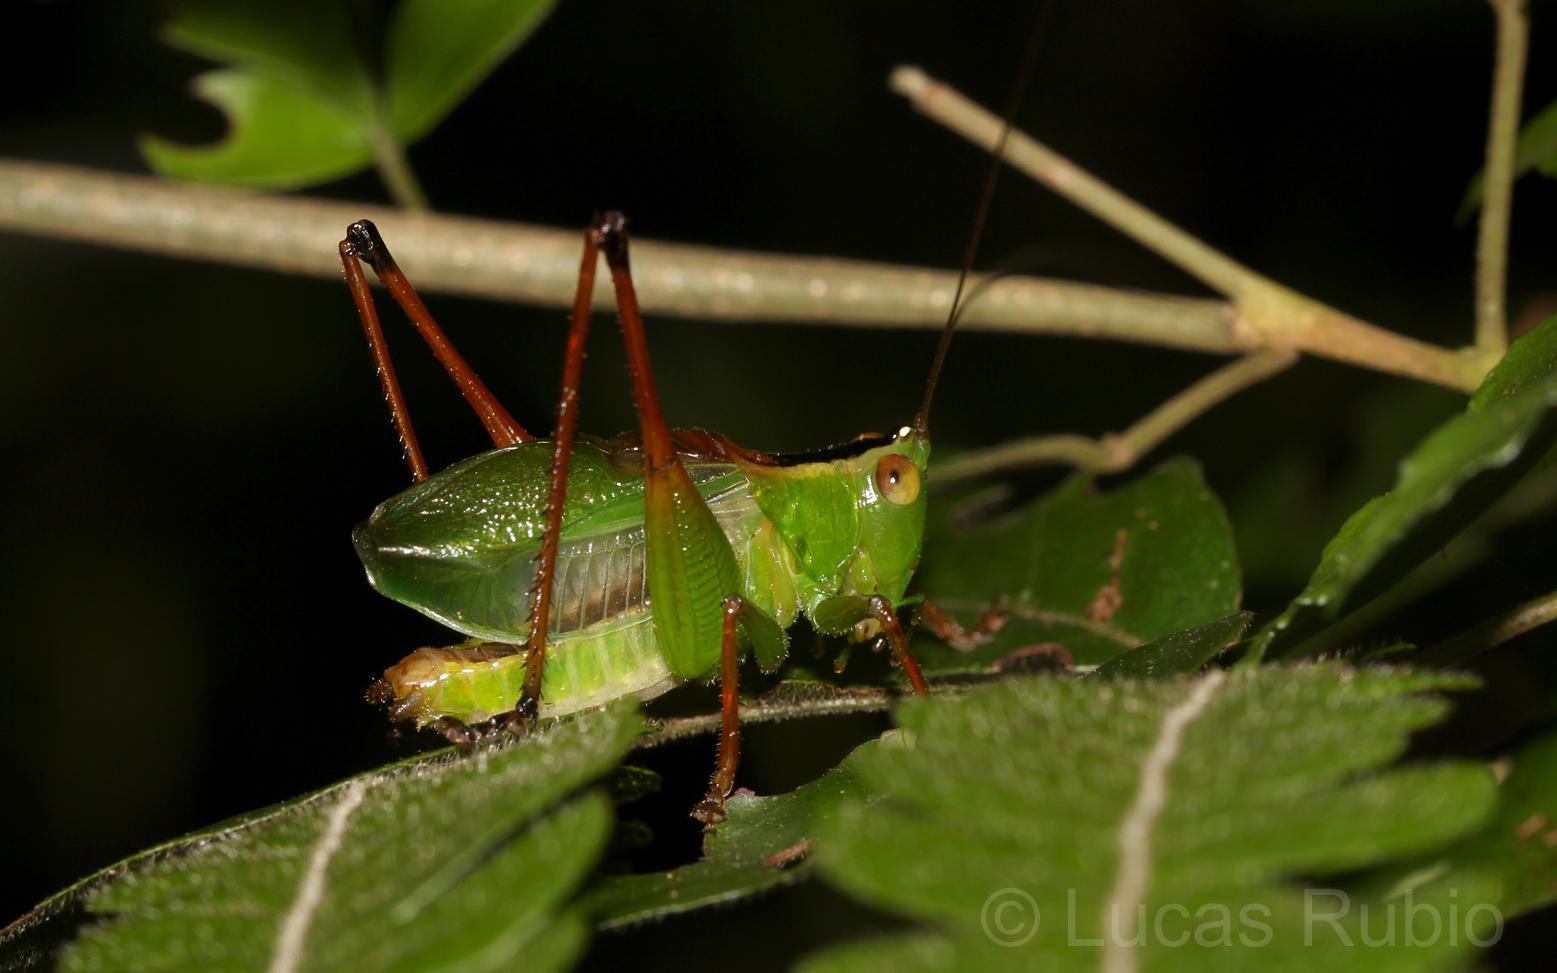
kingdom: Animalia
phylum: Arthropoda
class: Insecta
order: Orthoptera
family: Tettigoniidae
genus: Xiphelimum
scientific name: Xiphelimum amplipennis
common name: Clear-wing meadow katydid
